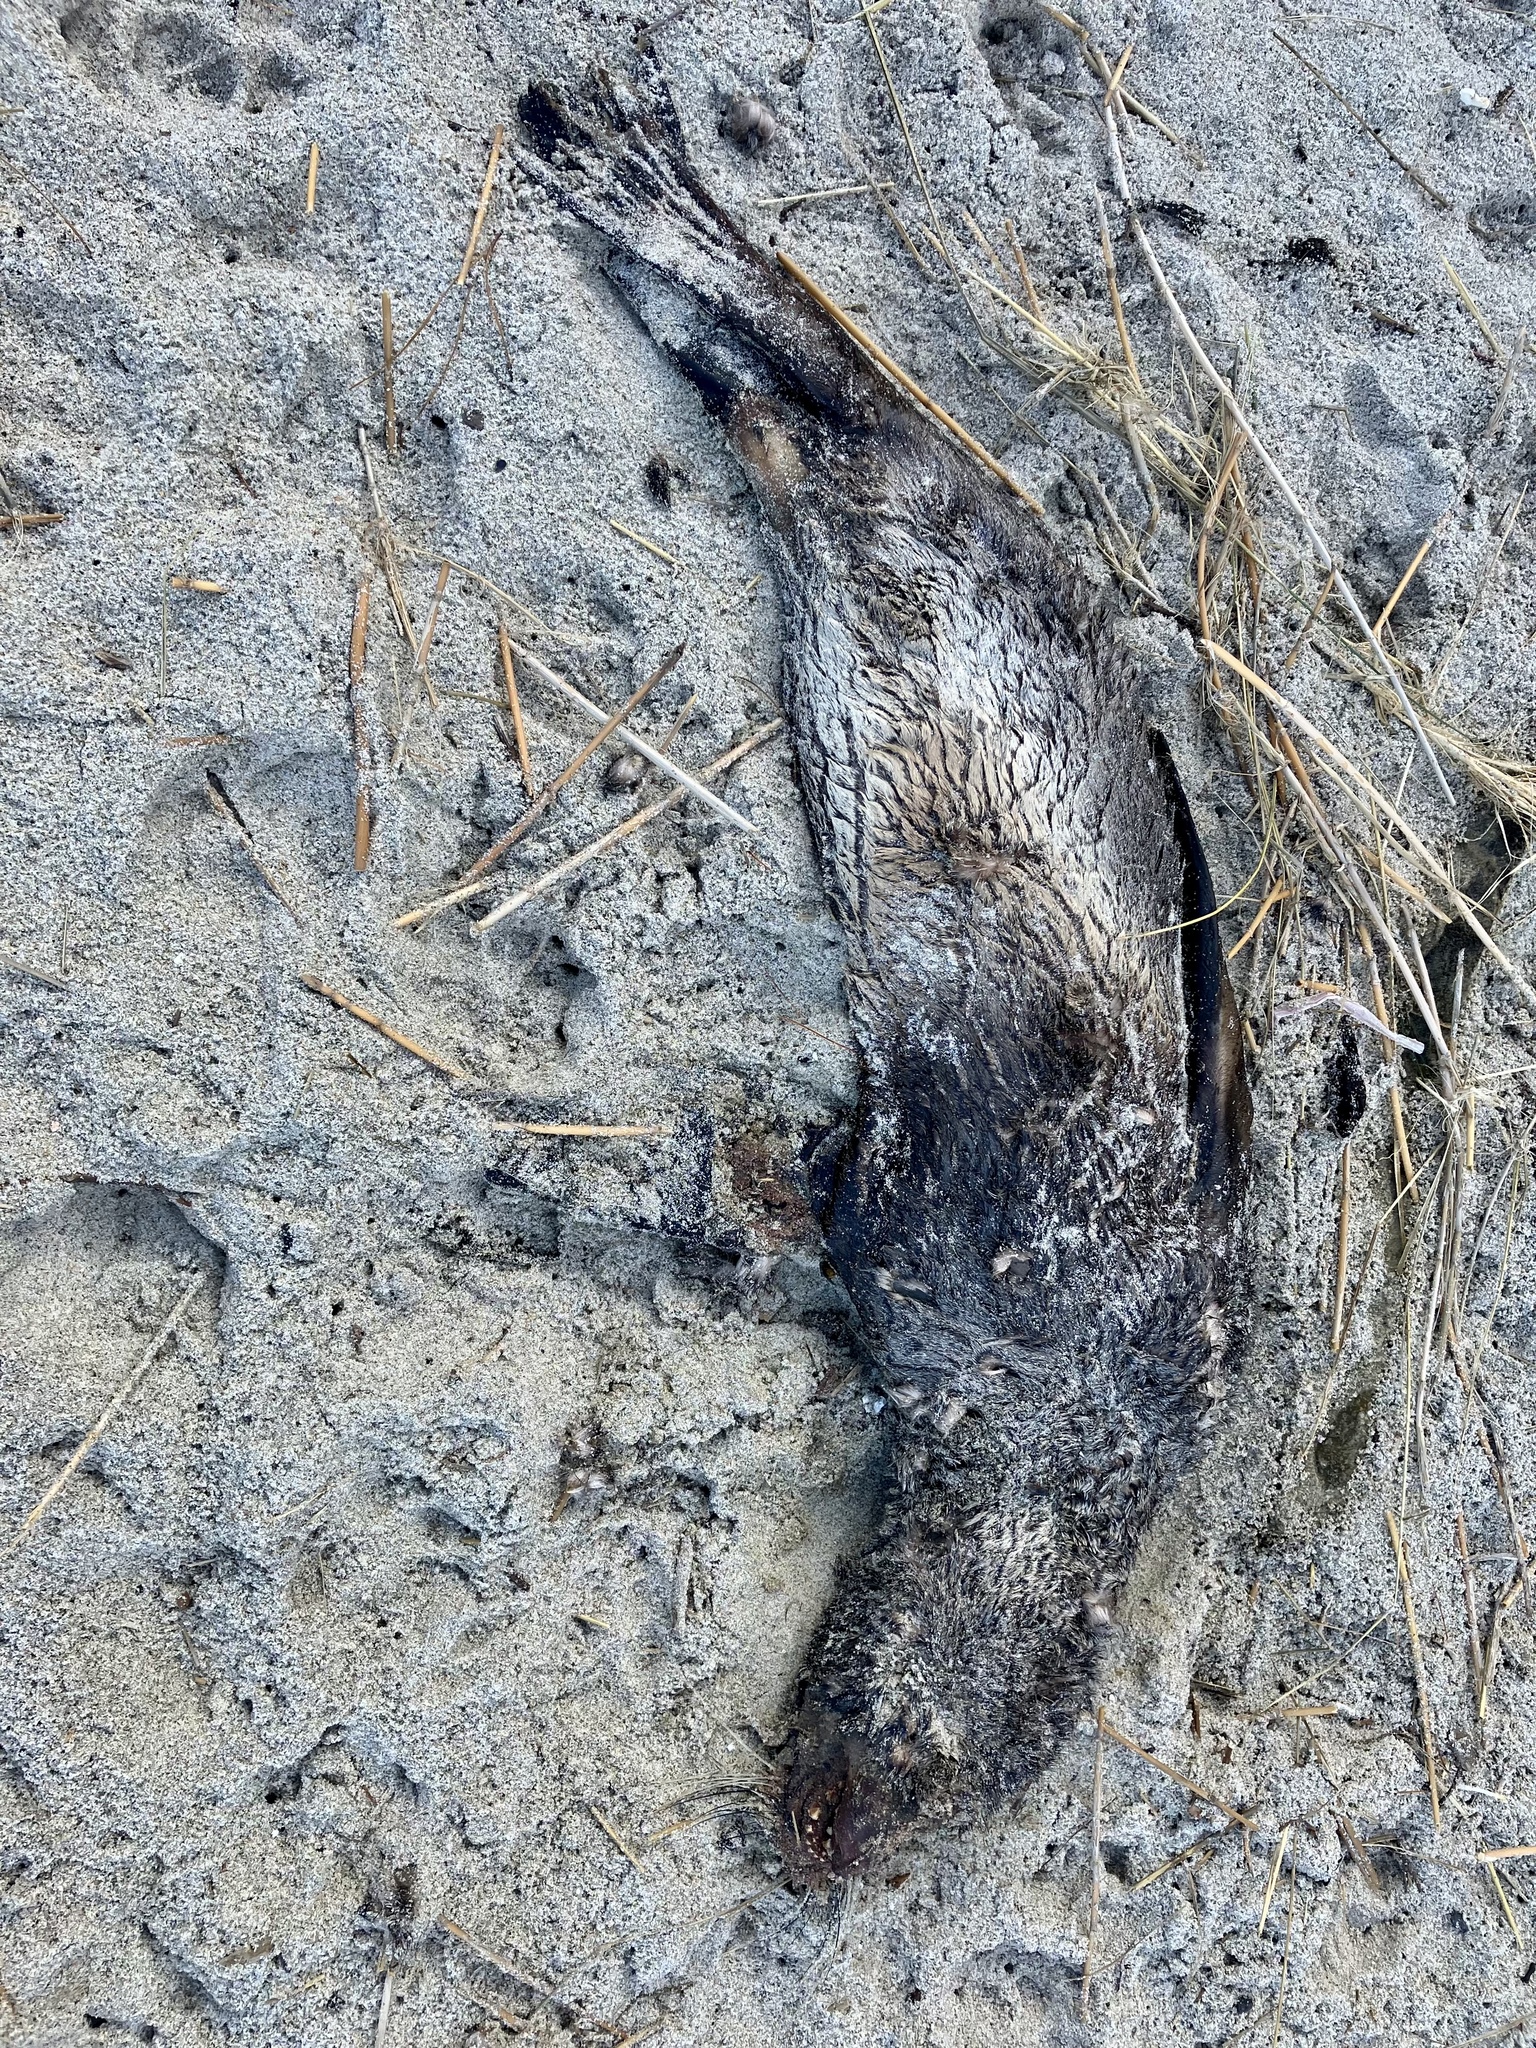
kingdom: Animalia
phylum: Chordata
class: Mammalia
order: Carnivora
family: Otariidae
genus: Arctocephalus
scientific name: Arctocephalus forsteri
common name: New zealand fur seal
